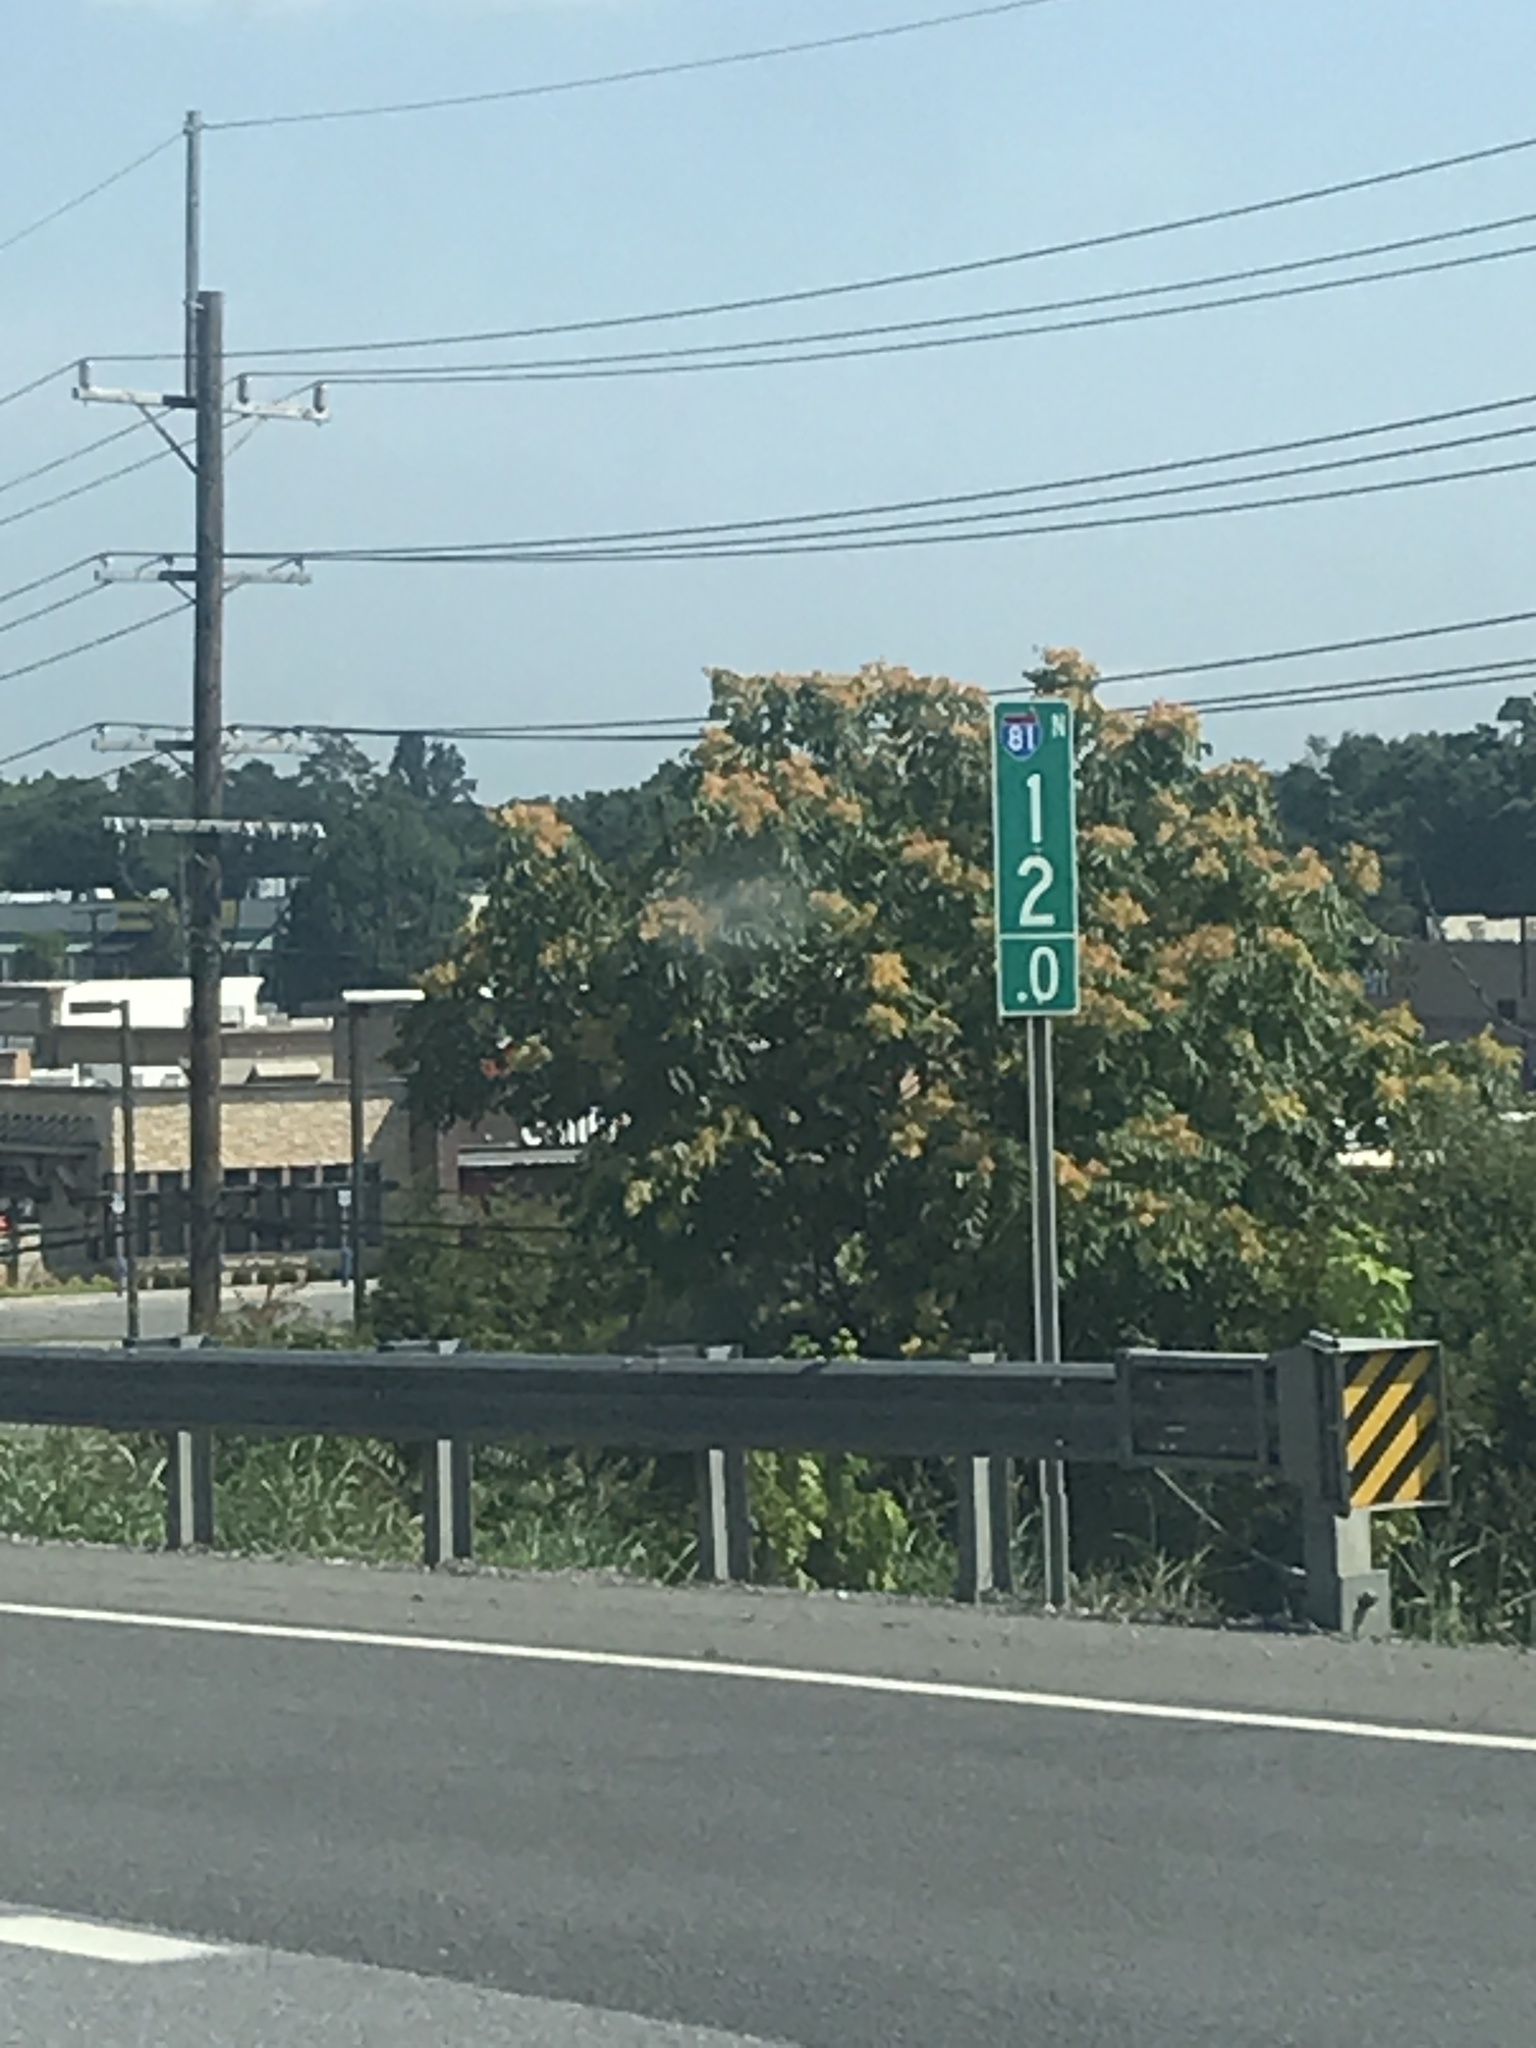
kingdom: Plantae
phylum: Tracheophyta
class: Magnoliopsida
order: Sapindales
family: Simaroubaceae
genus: Ailanthus
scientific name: Ailanthus altissima
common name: Tree-of-heaven
